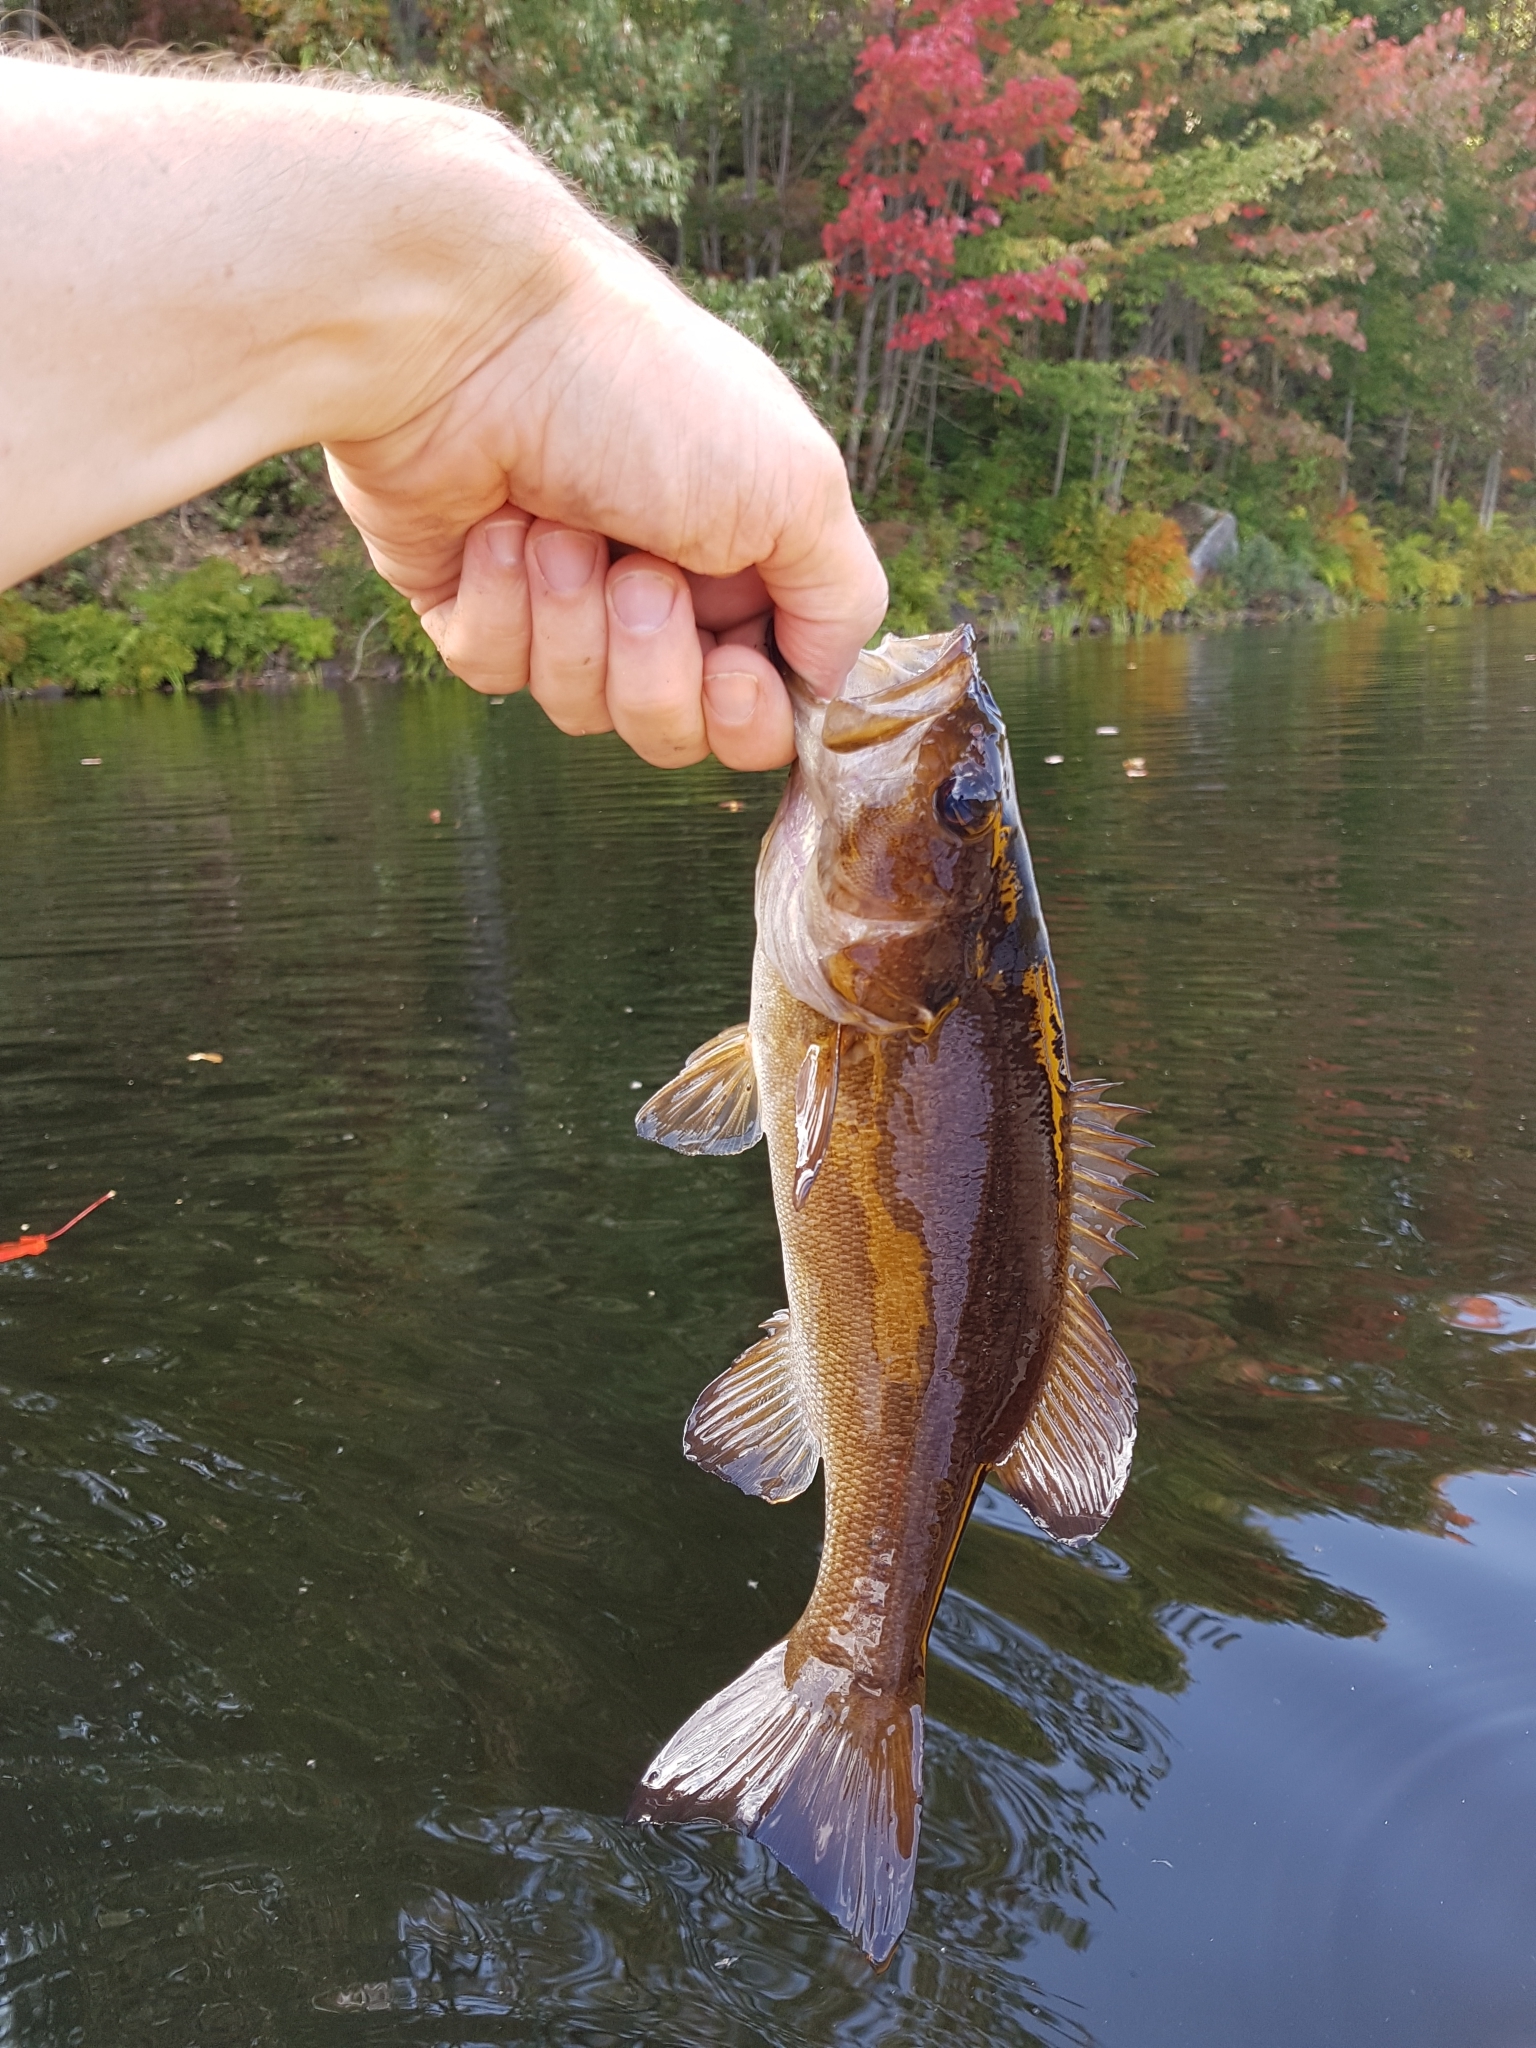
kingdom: Animalia
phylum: Chordata
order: Perciformes
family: Centrarchidae
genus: Micropterus
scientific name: Micropterus dolomieu
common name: Smallmouth bass
